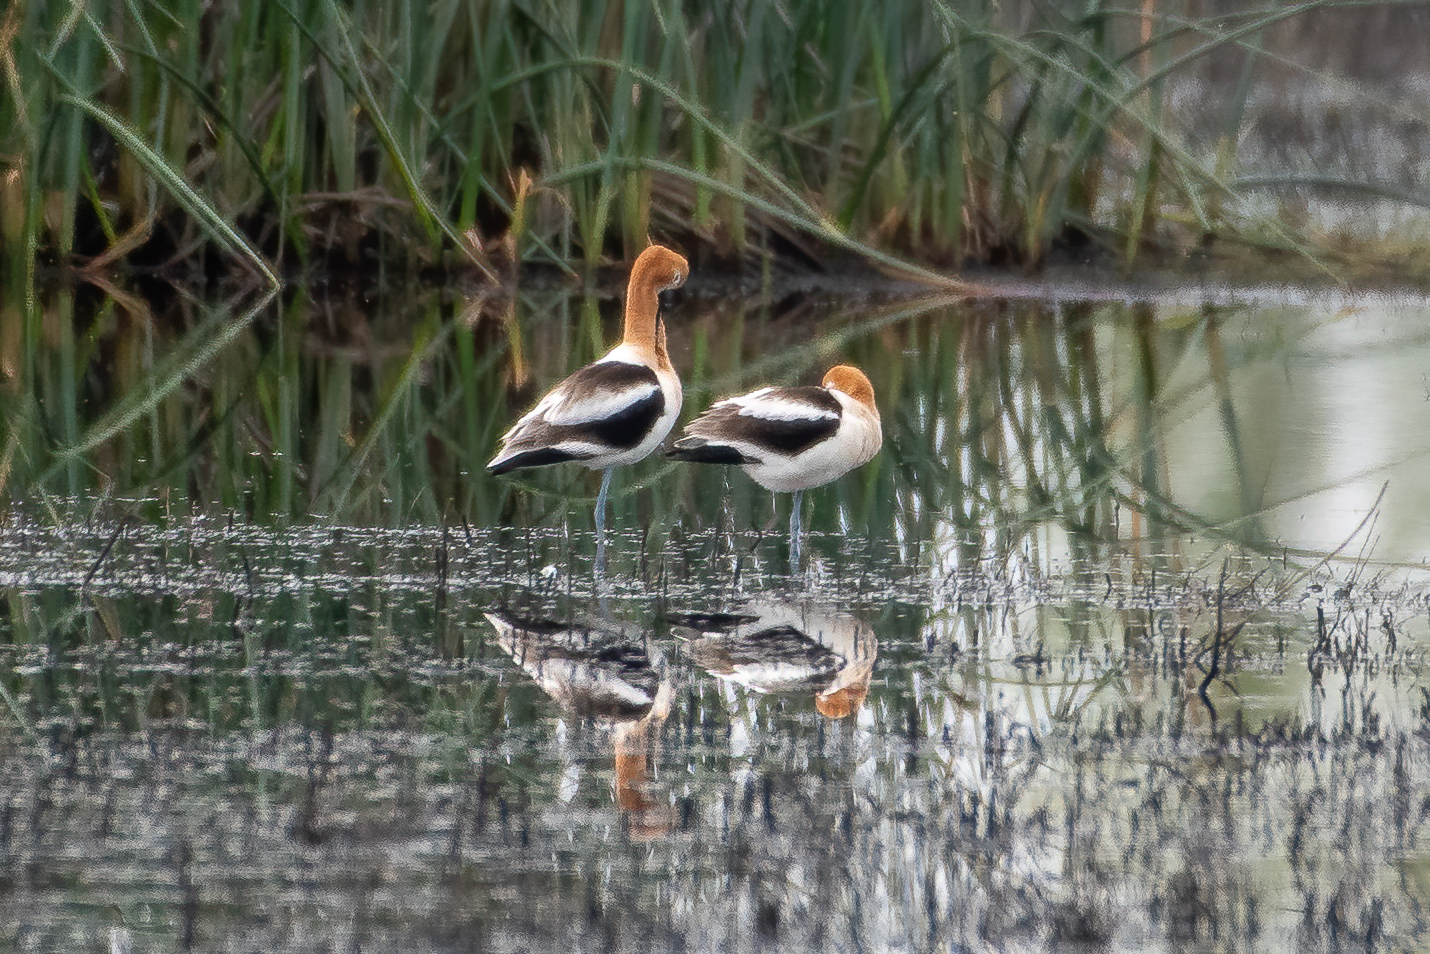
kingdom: Animalia
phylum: Chordata
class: Aves
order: Charadriiformes
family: Recurvirostridae
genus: Recurvirostra
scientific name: Recurvirostra americana
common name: American avocet
